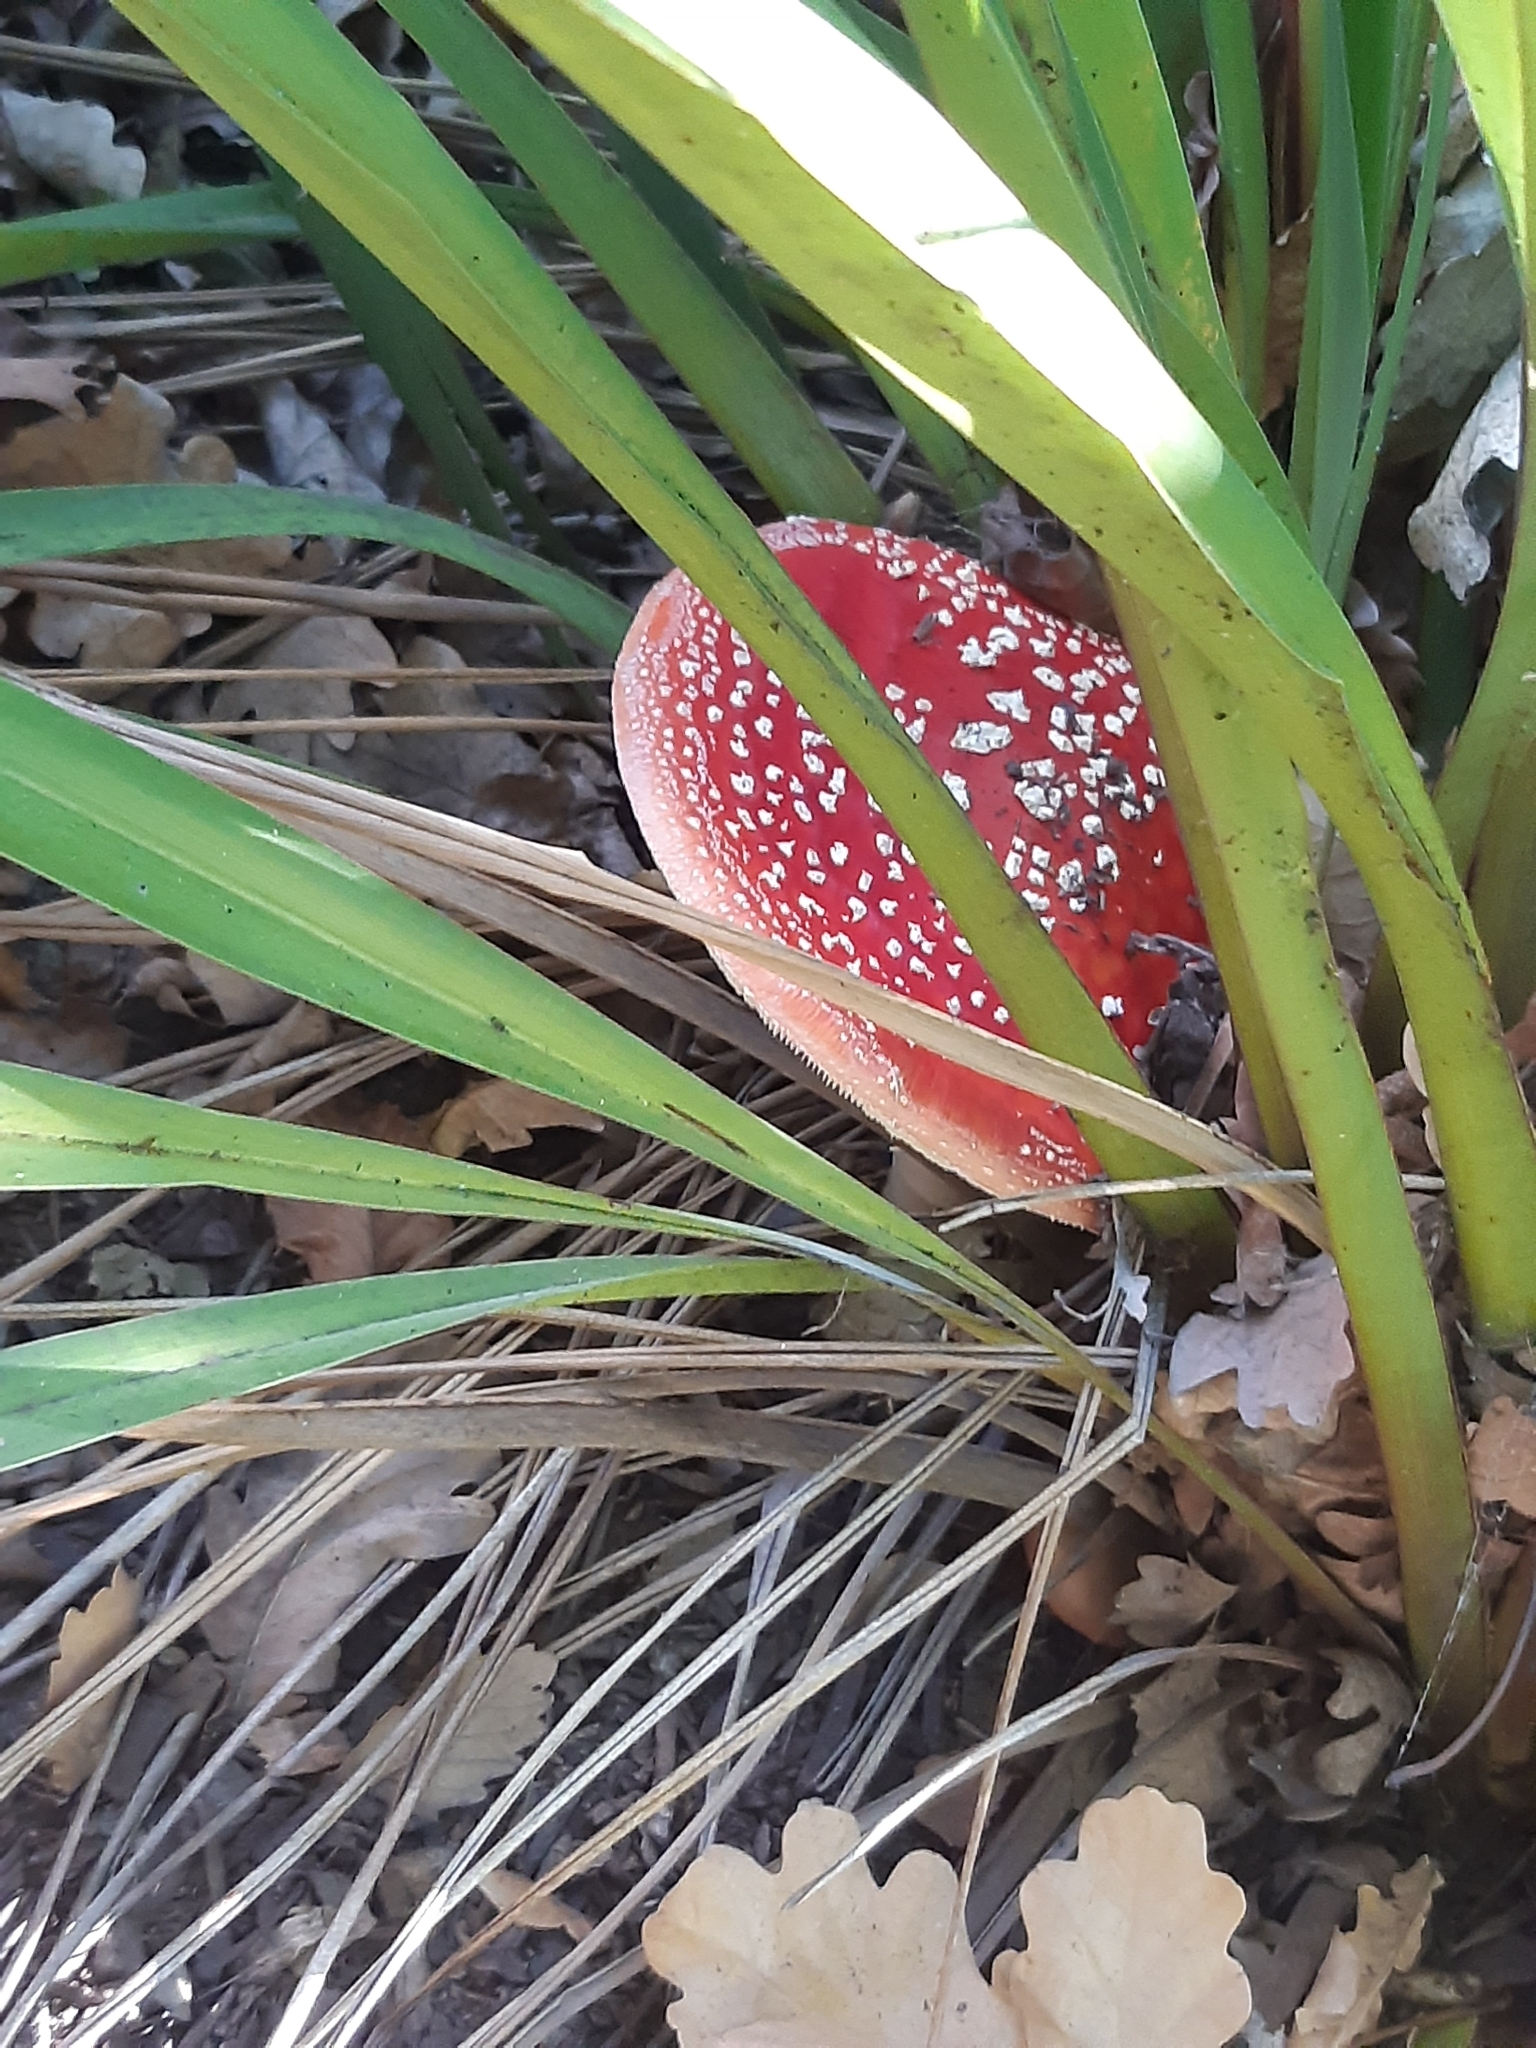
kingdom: Fungi
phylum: Basidiomycota
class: Agaricomycetes
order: Agaricales
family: Amanitaceae
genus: Amanita
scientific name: Amanita muscaria
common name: Fly agaric
